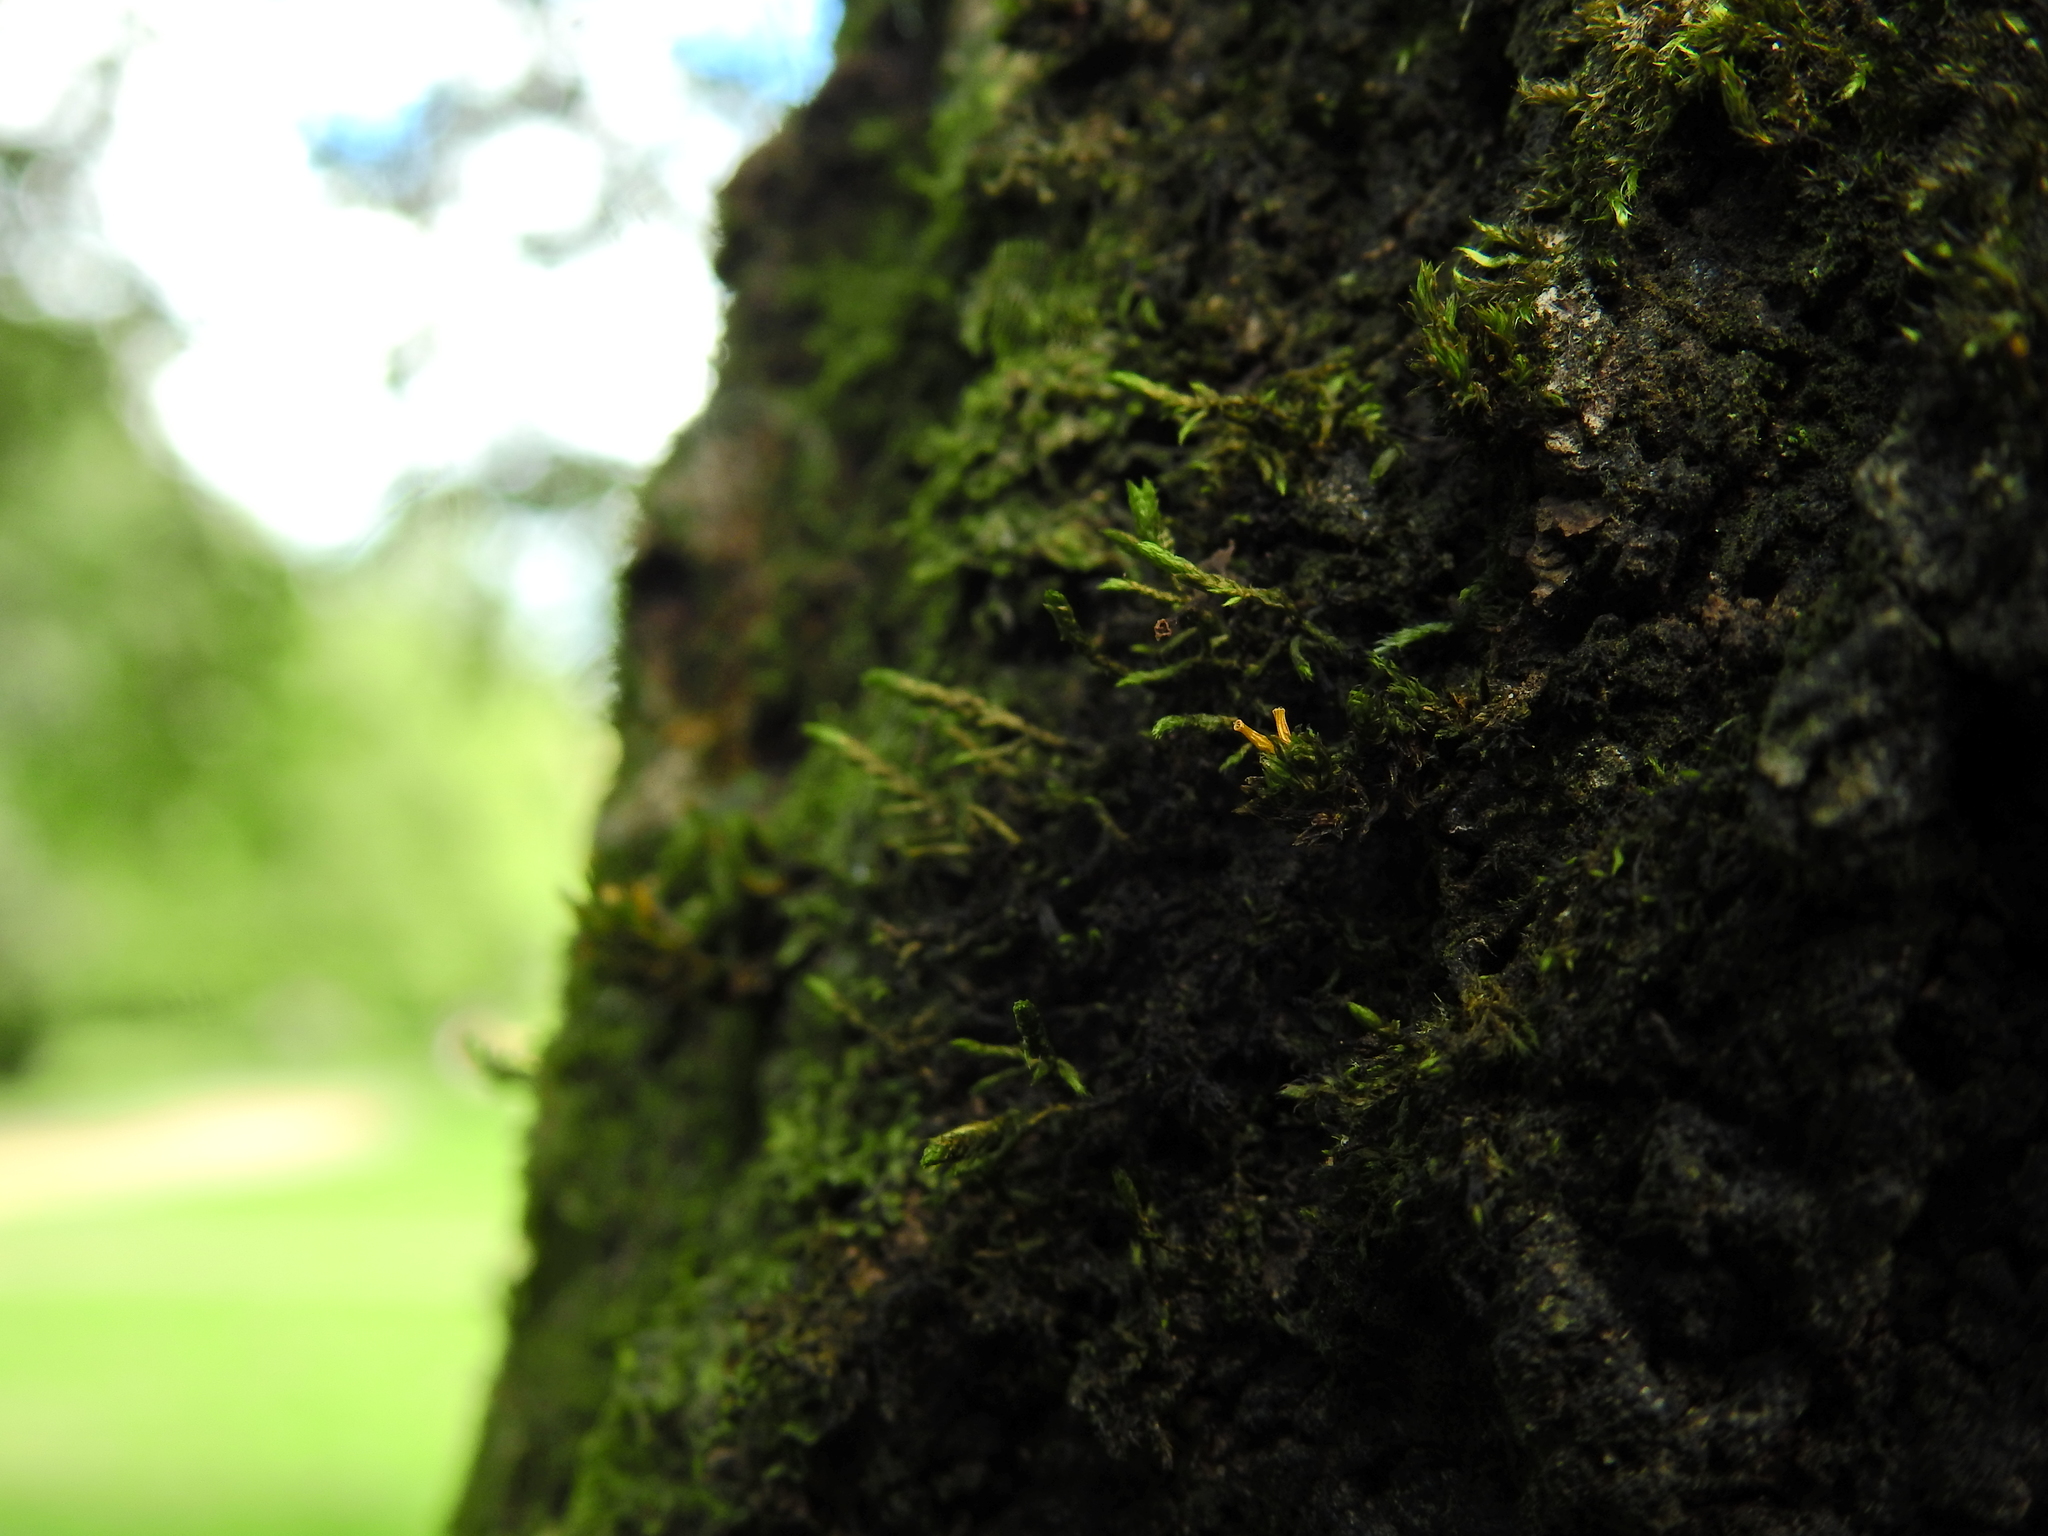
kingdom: Plantae
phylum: Bryophyta
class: Bryopsida
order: Hypnales
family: Cryphaeaceae
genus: Cryphaea
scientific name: Cryphaea heteromalla
